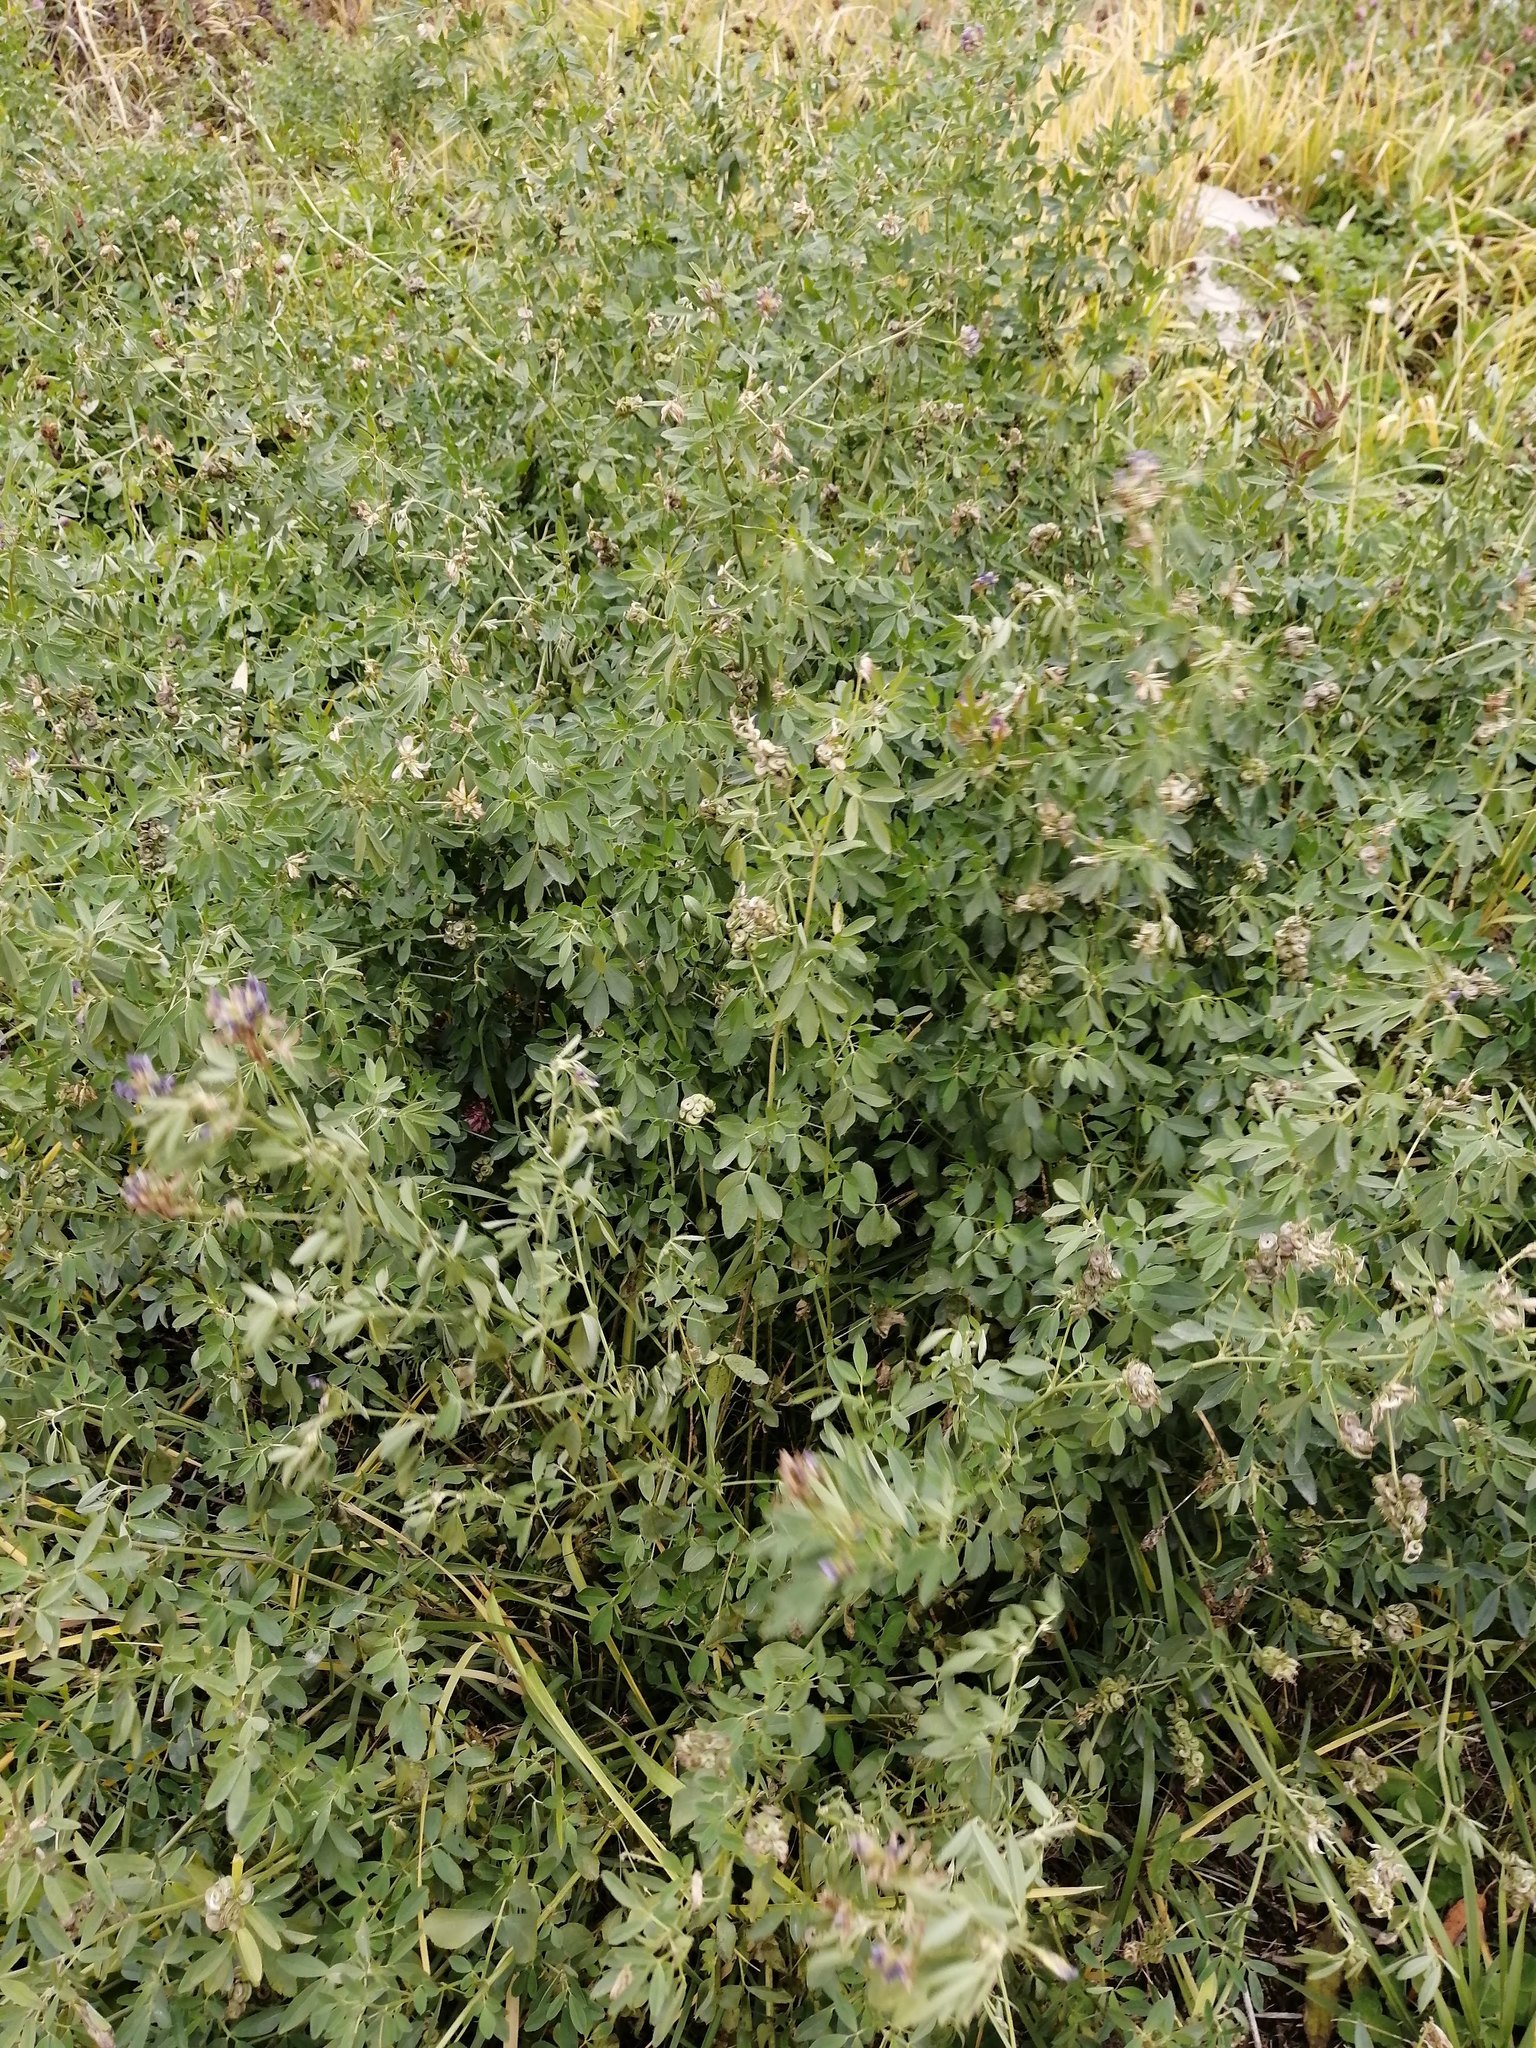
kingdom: Plantae
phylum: Tracheophyta
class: Magnoliopsida
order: Fabales
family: Fabaceae
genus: Medicago
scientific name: Medicago varia
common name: Sand lucerne
